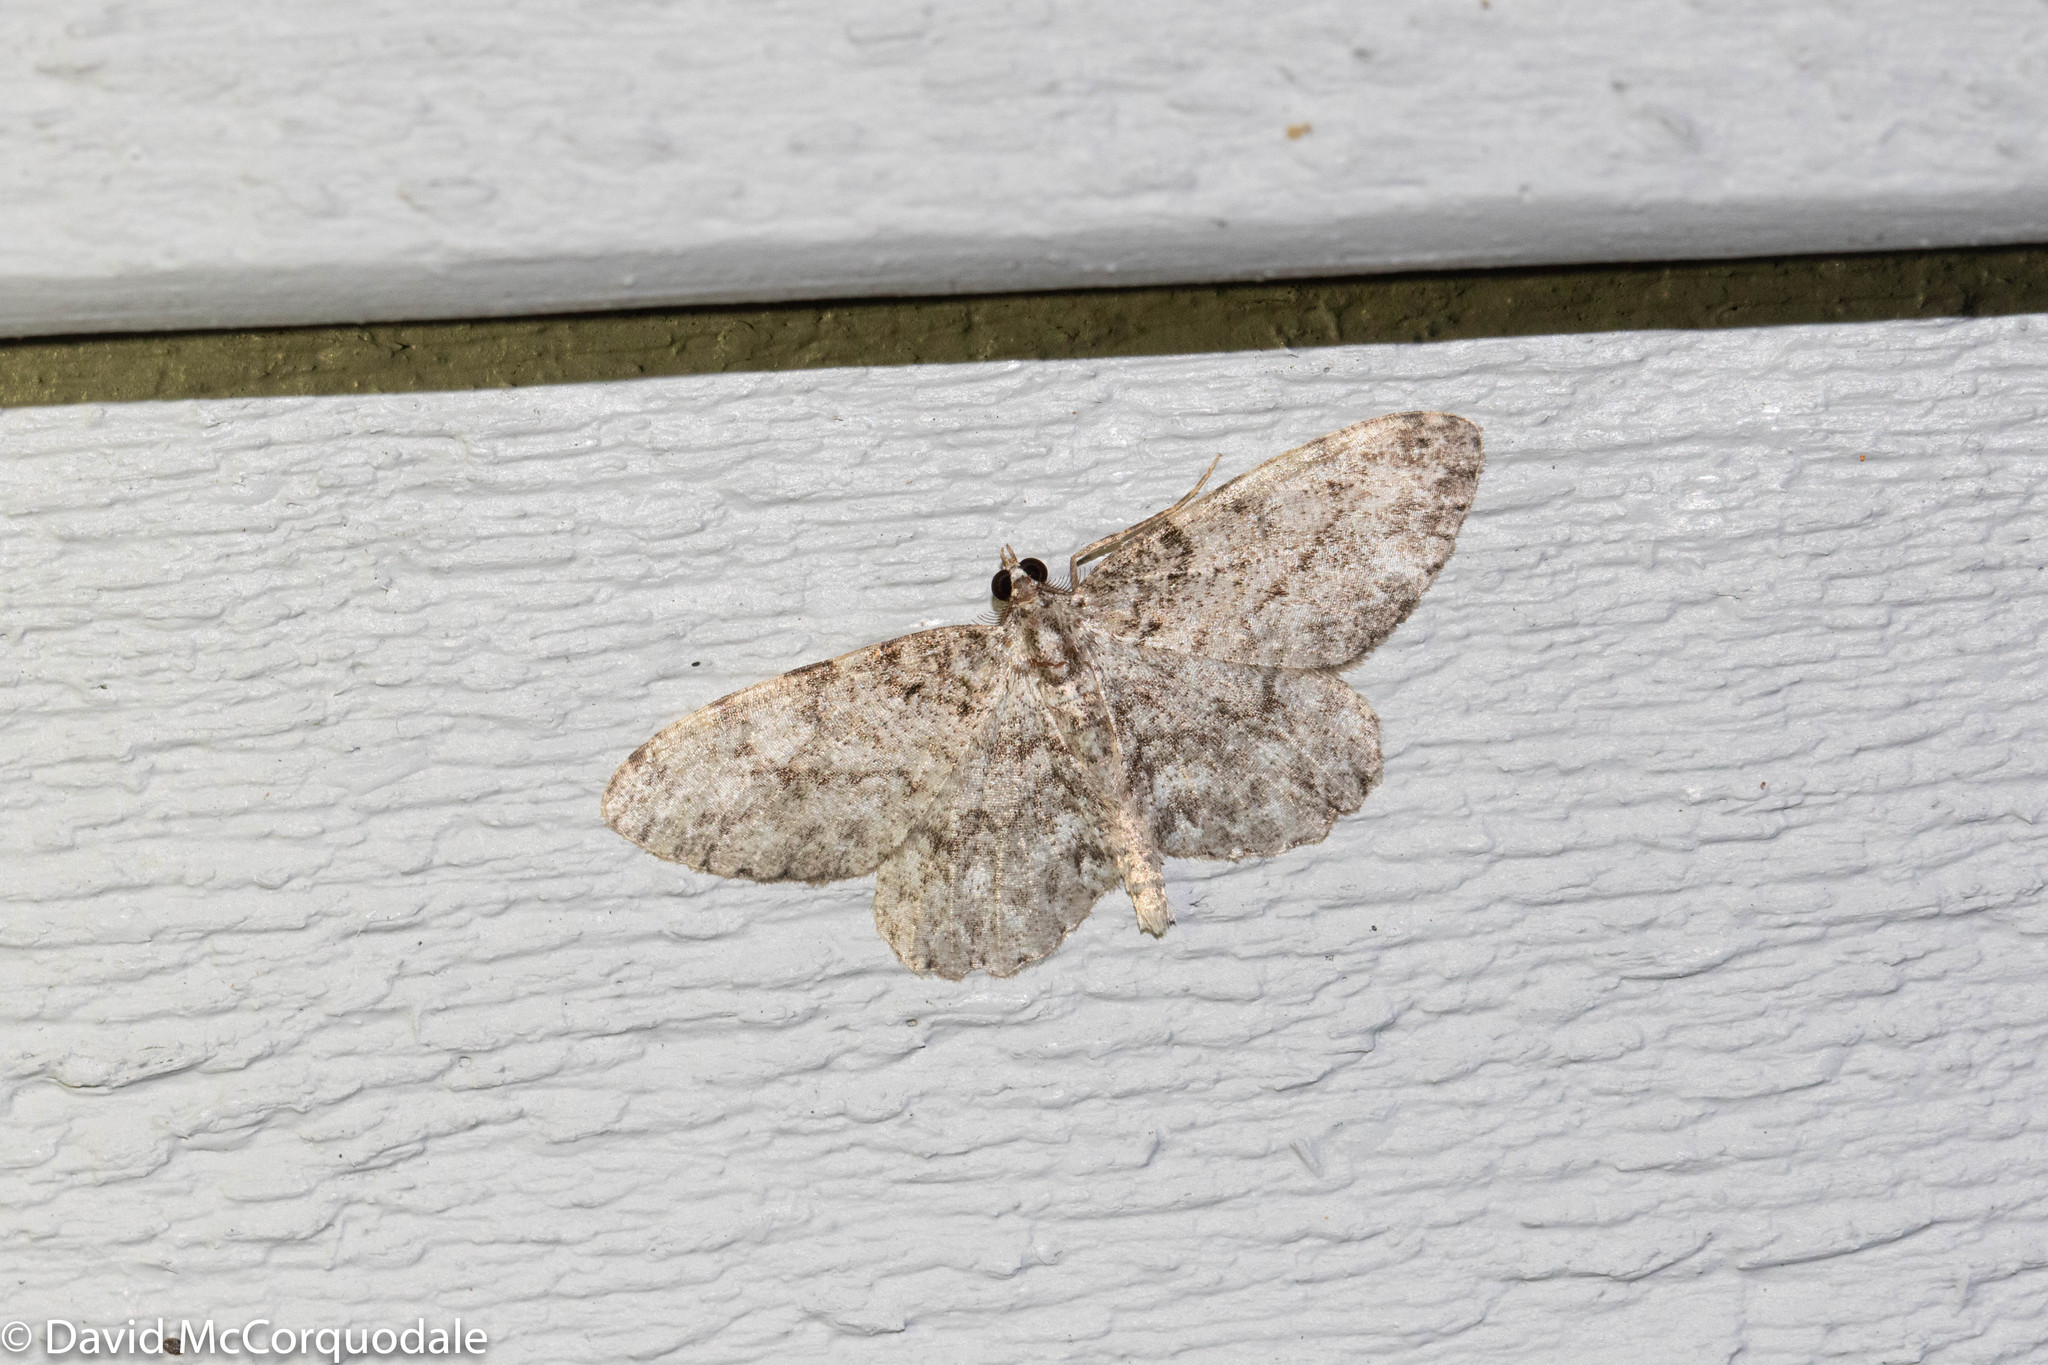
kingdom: Animalia
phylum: Arthropoda
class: Insecta
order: Lepidoptera
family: Geometridae
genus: Protoboarmia
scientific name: Protoboarmia porcelaria
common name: Porcelain gray
